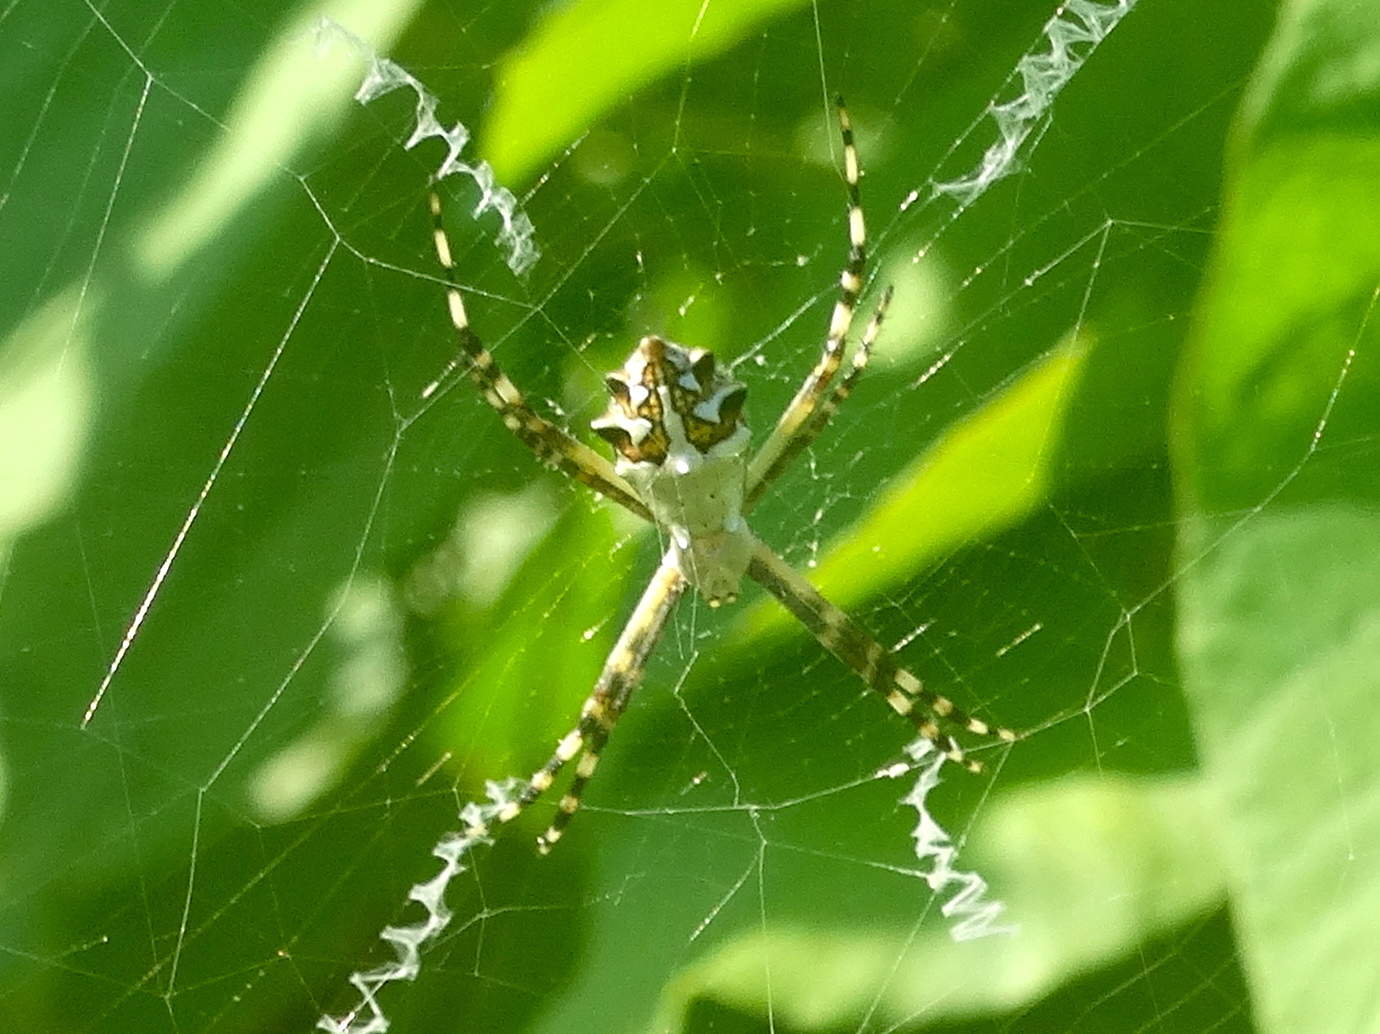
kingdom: Animalia
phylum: Arthropoda
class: Arachnida
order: Araneae
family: Araneidae
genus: Argiope
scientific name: Argiope argentata
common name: Orb weavers
